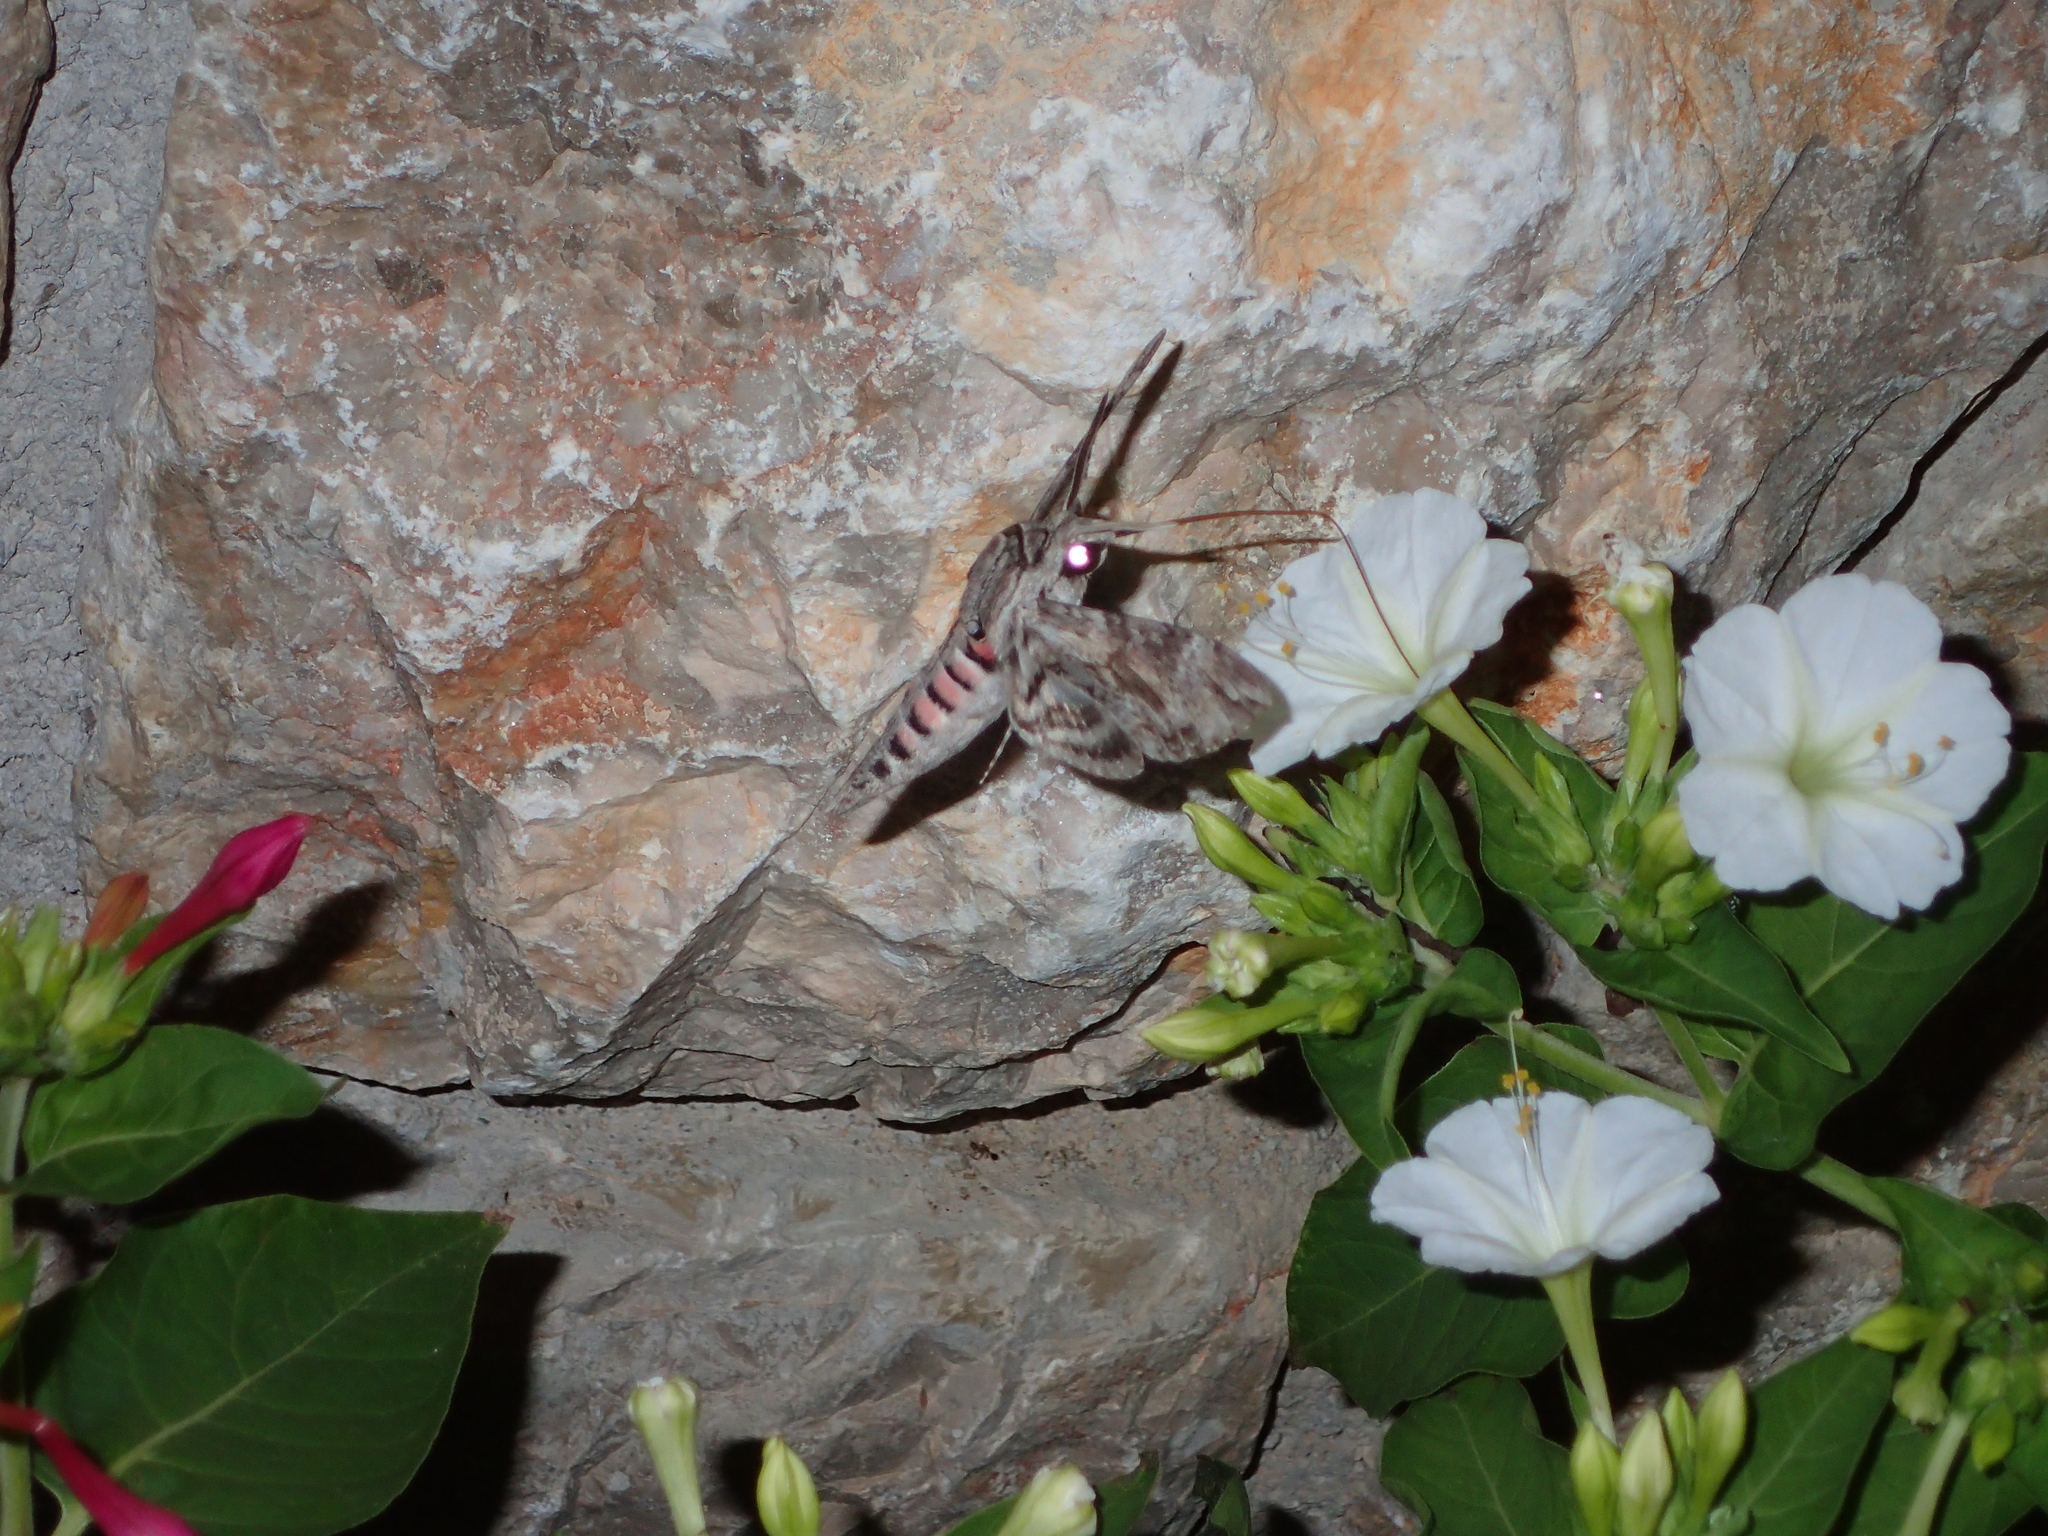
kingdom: Animalia
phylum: Arthropoda
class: Insecta
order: Lepidoptera
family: Sphingidae
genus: Agrius
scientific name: Agrius convolvuli
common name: Convolvulus hawkmoth
